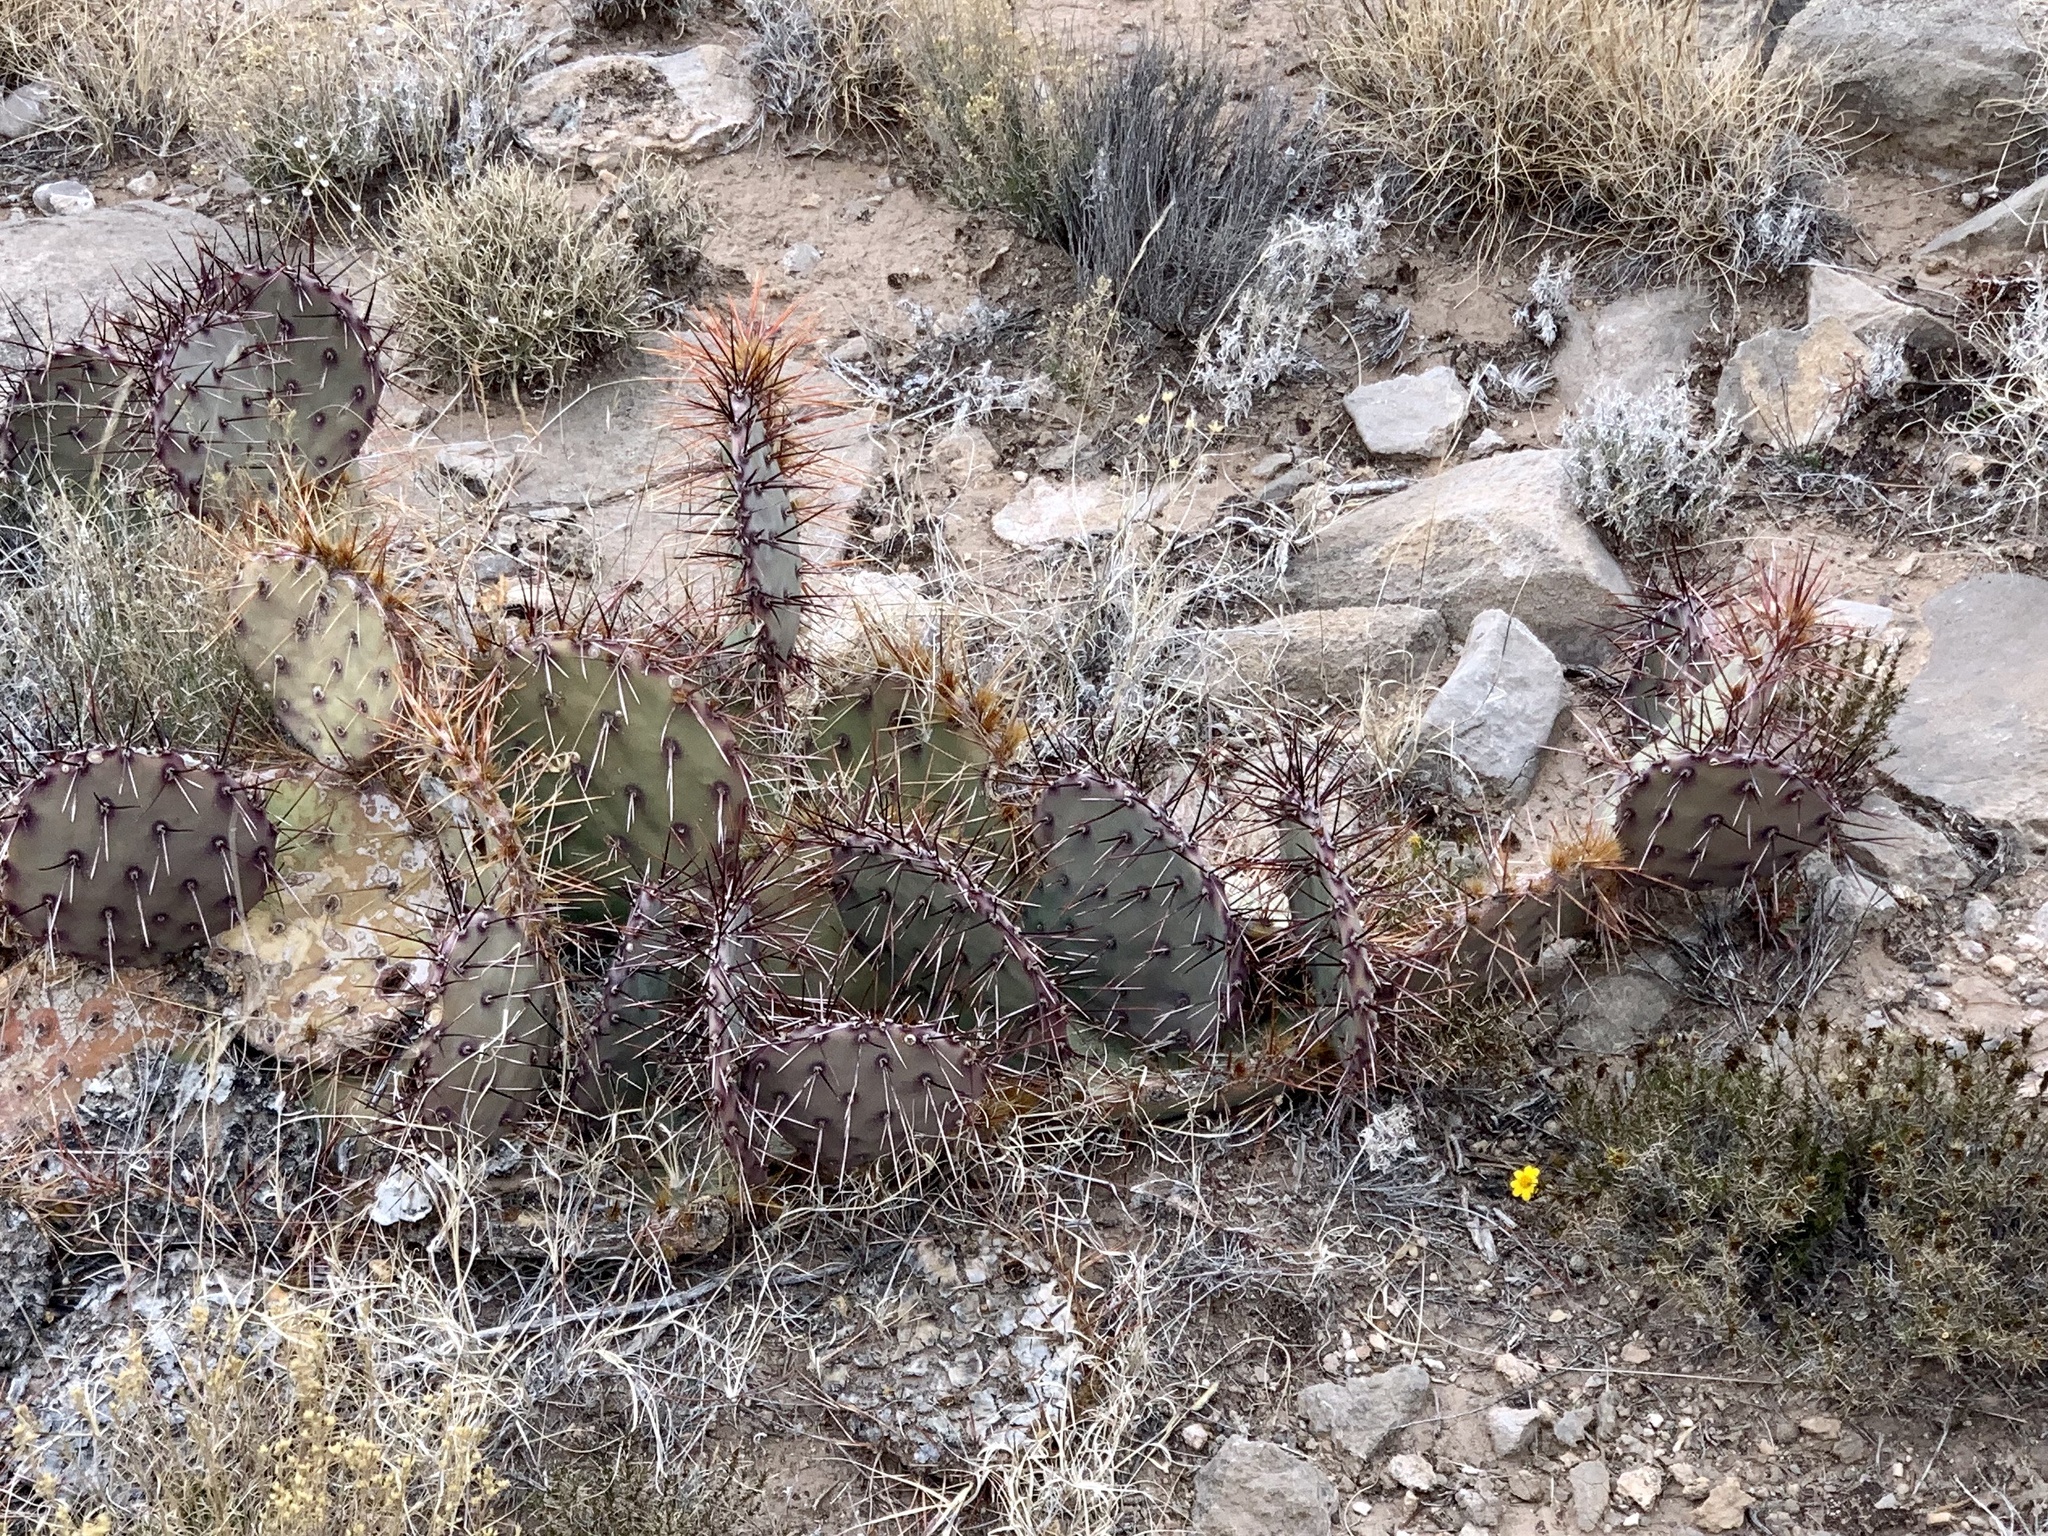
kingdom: Plantae
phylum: Tracheophyta
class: Magnoliopsida
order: Caryophyllales
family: Cactaceae
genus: Opuntia
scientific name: Opuntia macrocentra
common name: Purple prickly-pear
